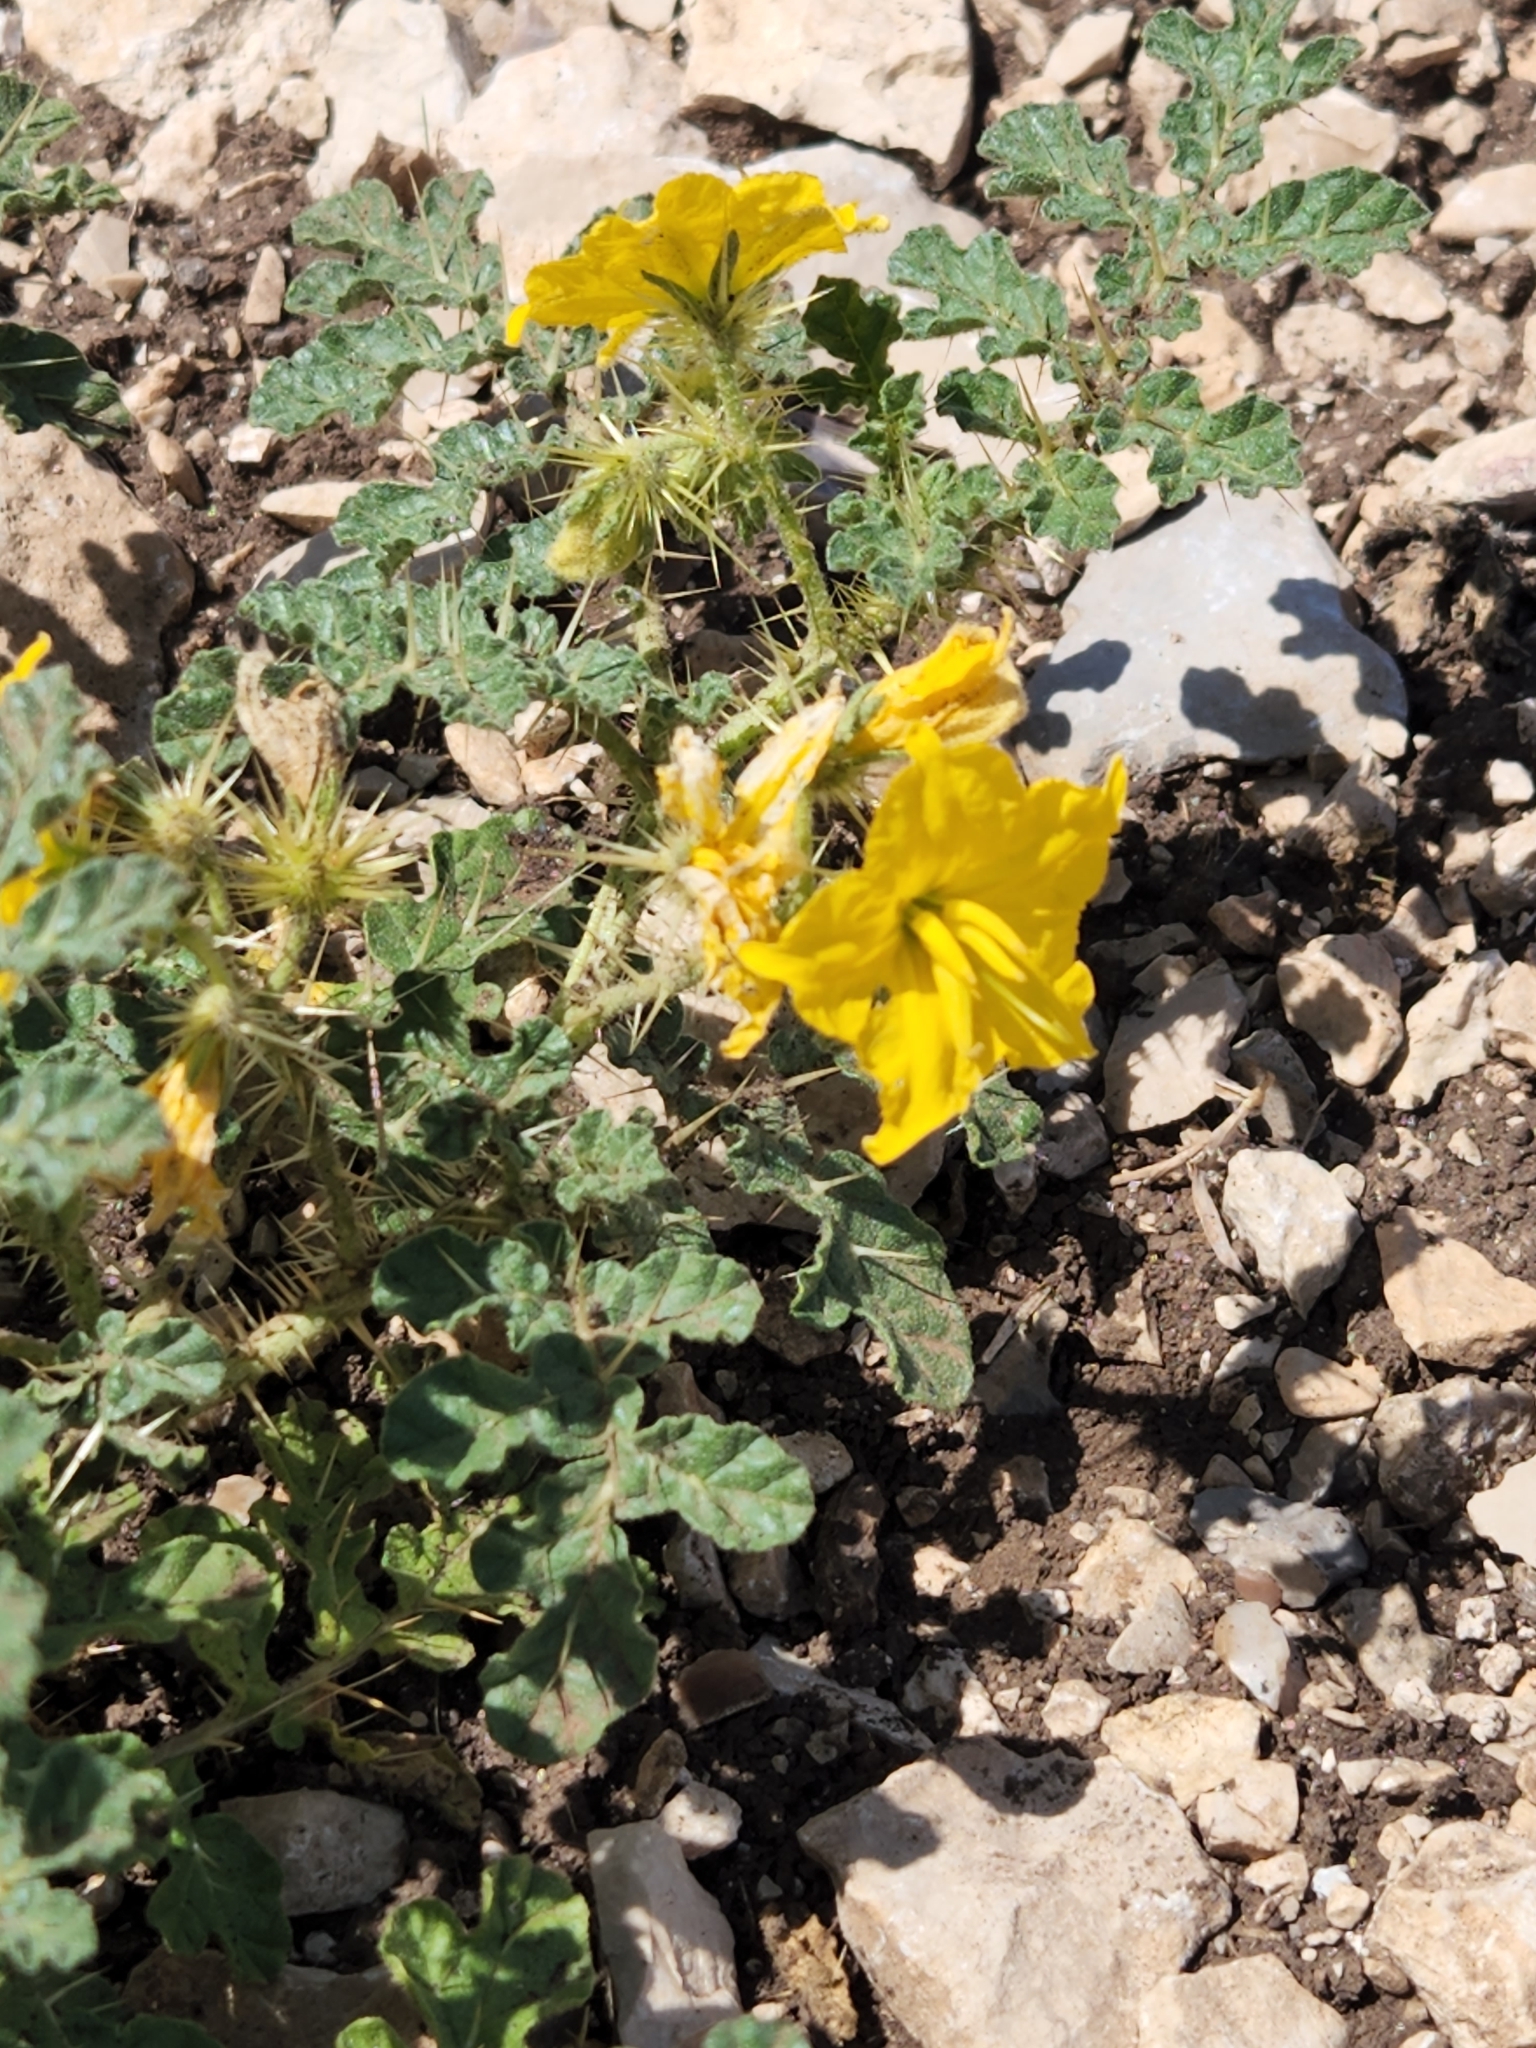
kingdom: Plantae
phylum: Tracheophyta
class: Magnoliopsida
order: Solanales
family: Solanaceae
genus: Solanum
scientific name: Solanum angustifolium
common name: Buffalobur nightshade
